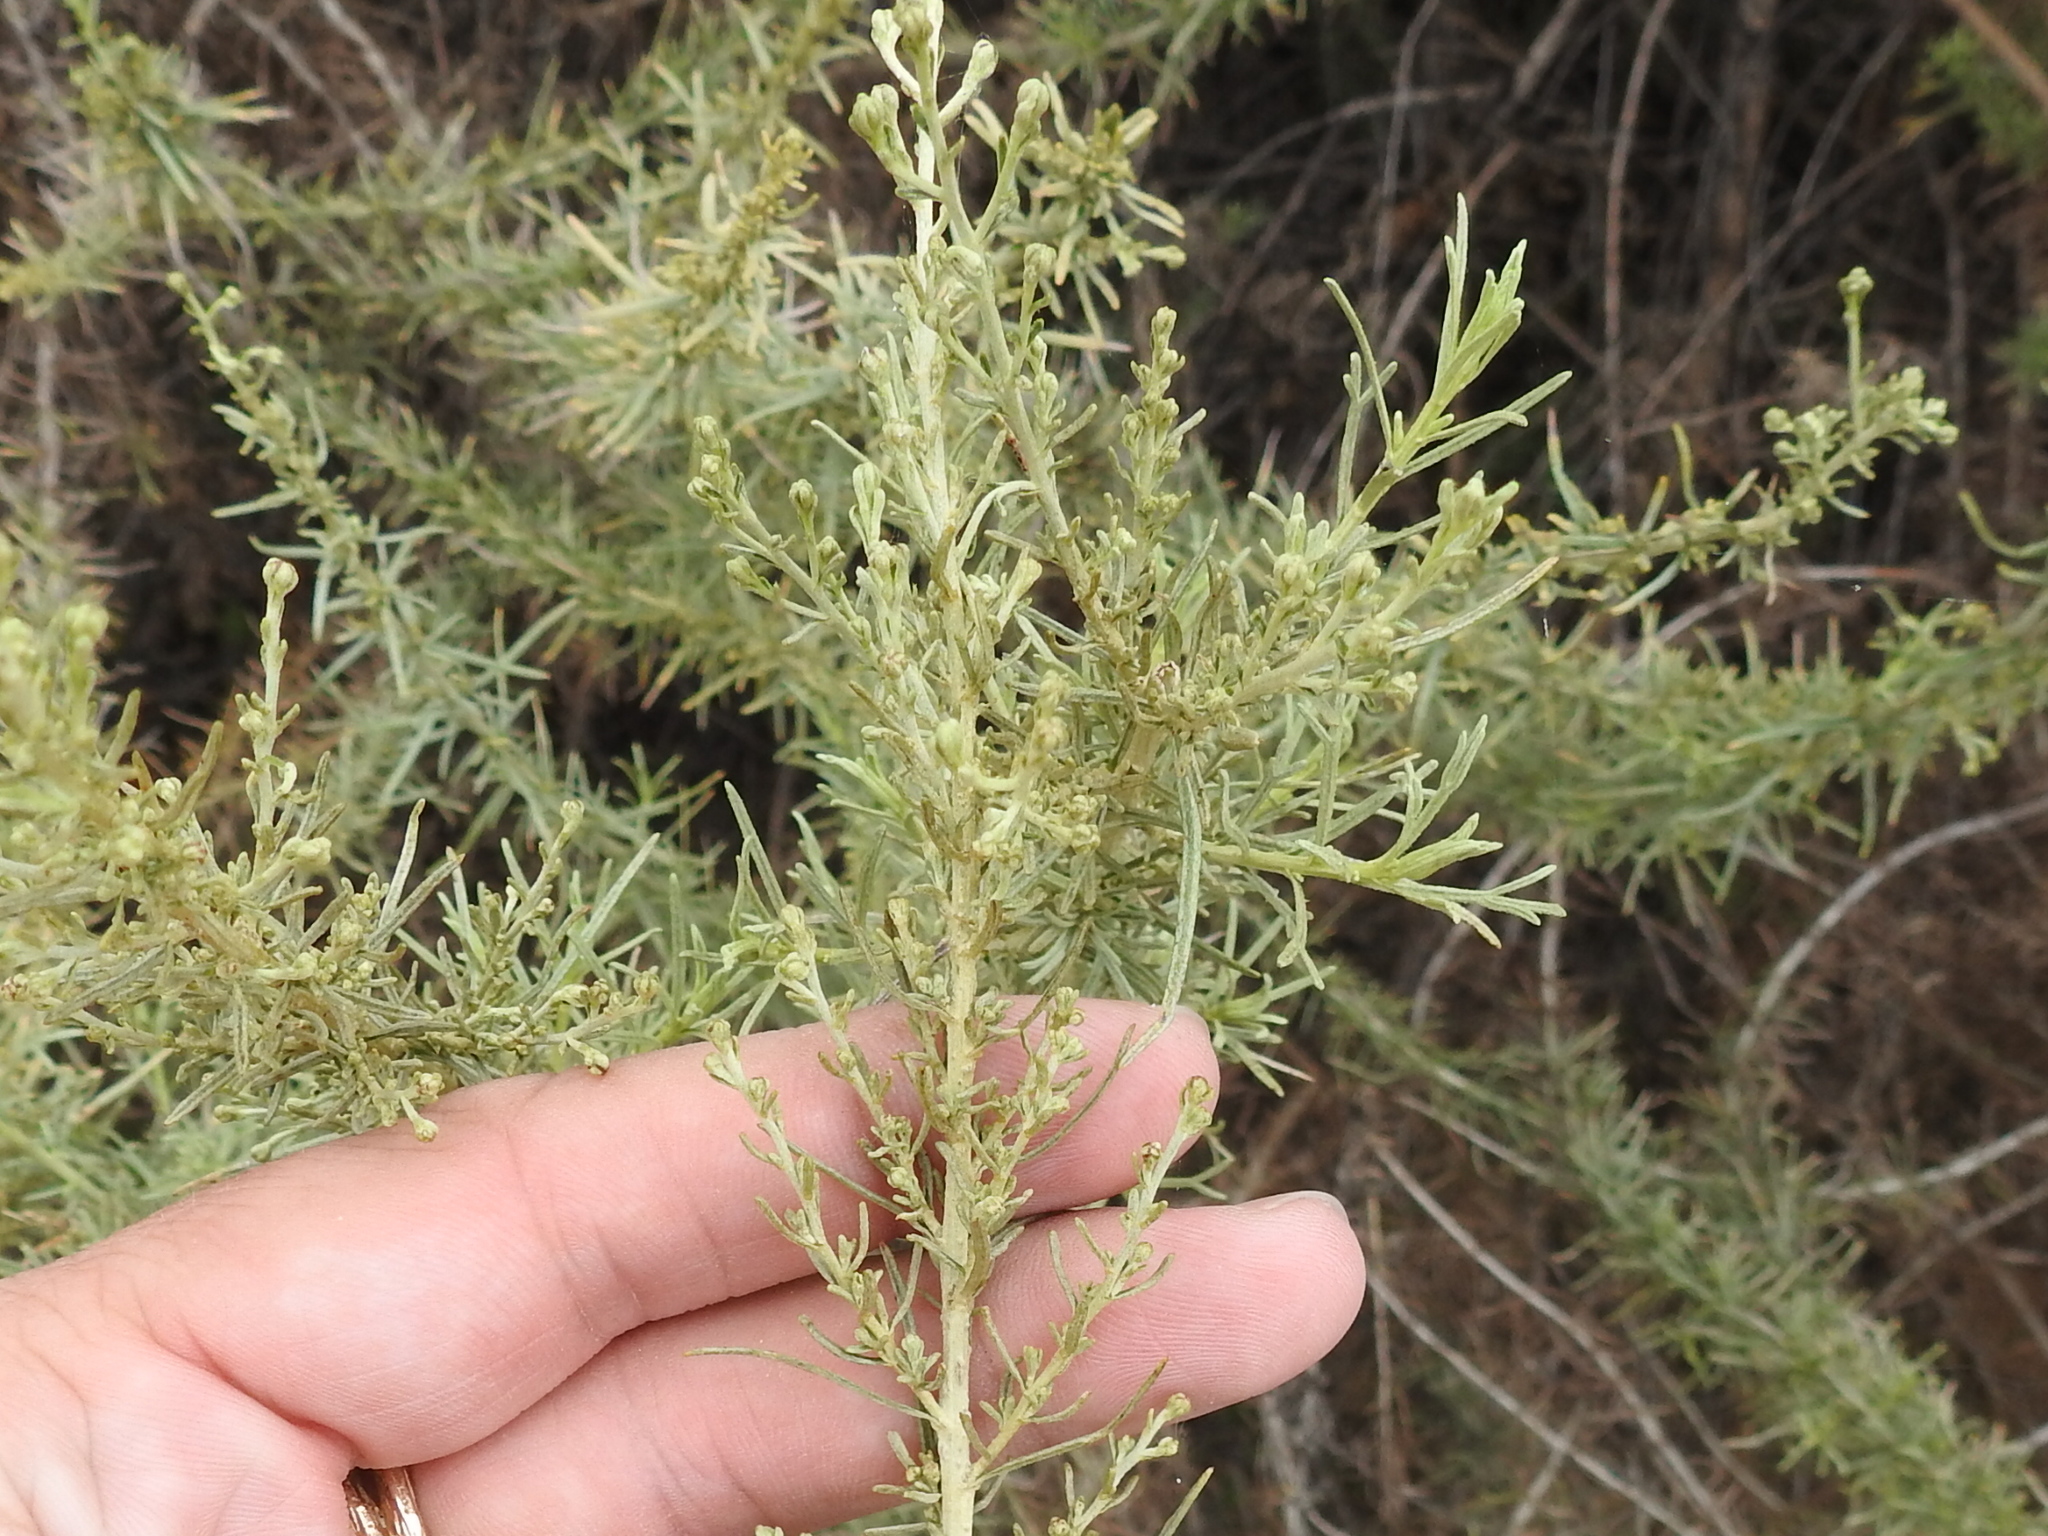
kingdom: Plantae
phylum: Tracheophyta
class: Magnoliopsida
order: Asterales
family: Asteraceae
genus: Artemisia
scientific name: Artemisia californica
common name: California sagebrush
